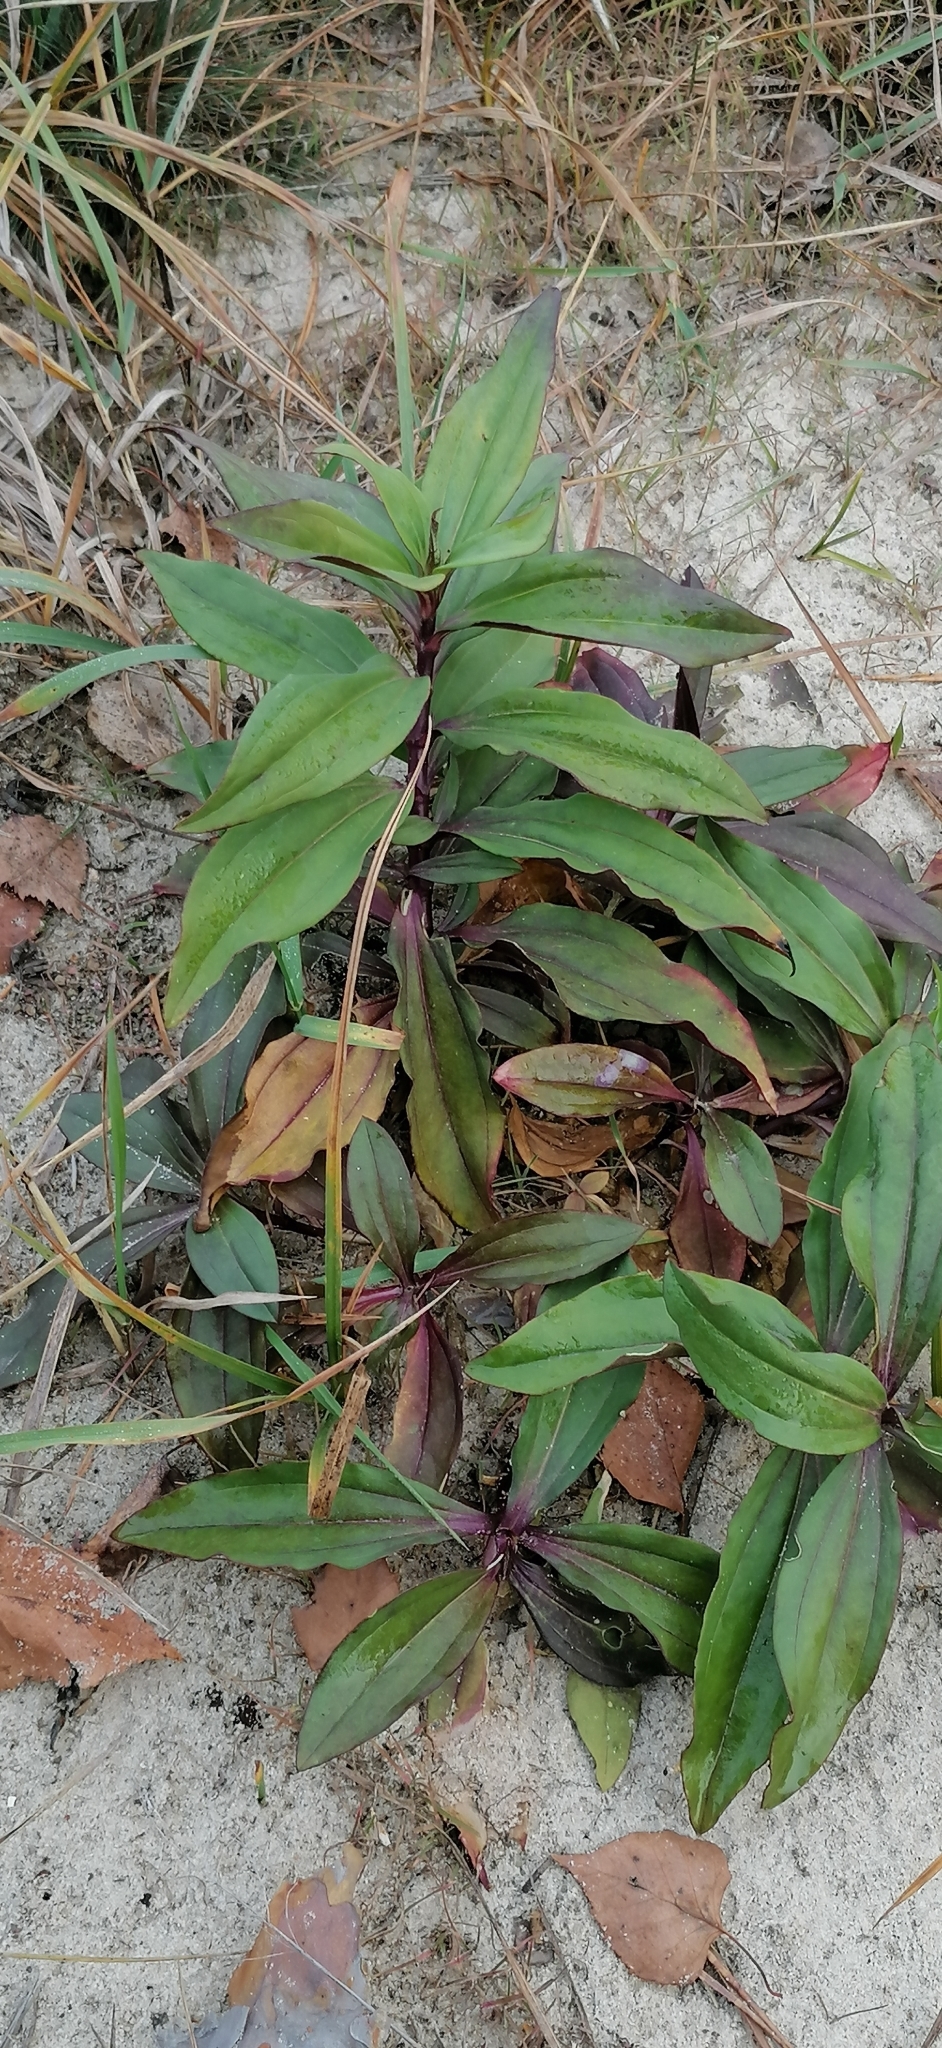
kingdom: Plantae
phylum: Tracheophyta
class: Magnoliopsida
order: Caryophyllales
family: Caryophyllaceae
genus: Saponaria
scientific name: Saponaria officinalis
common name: Soapwort
